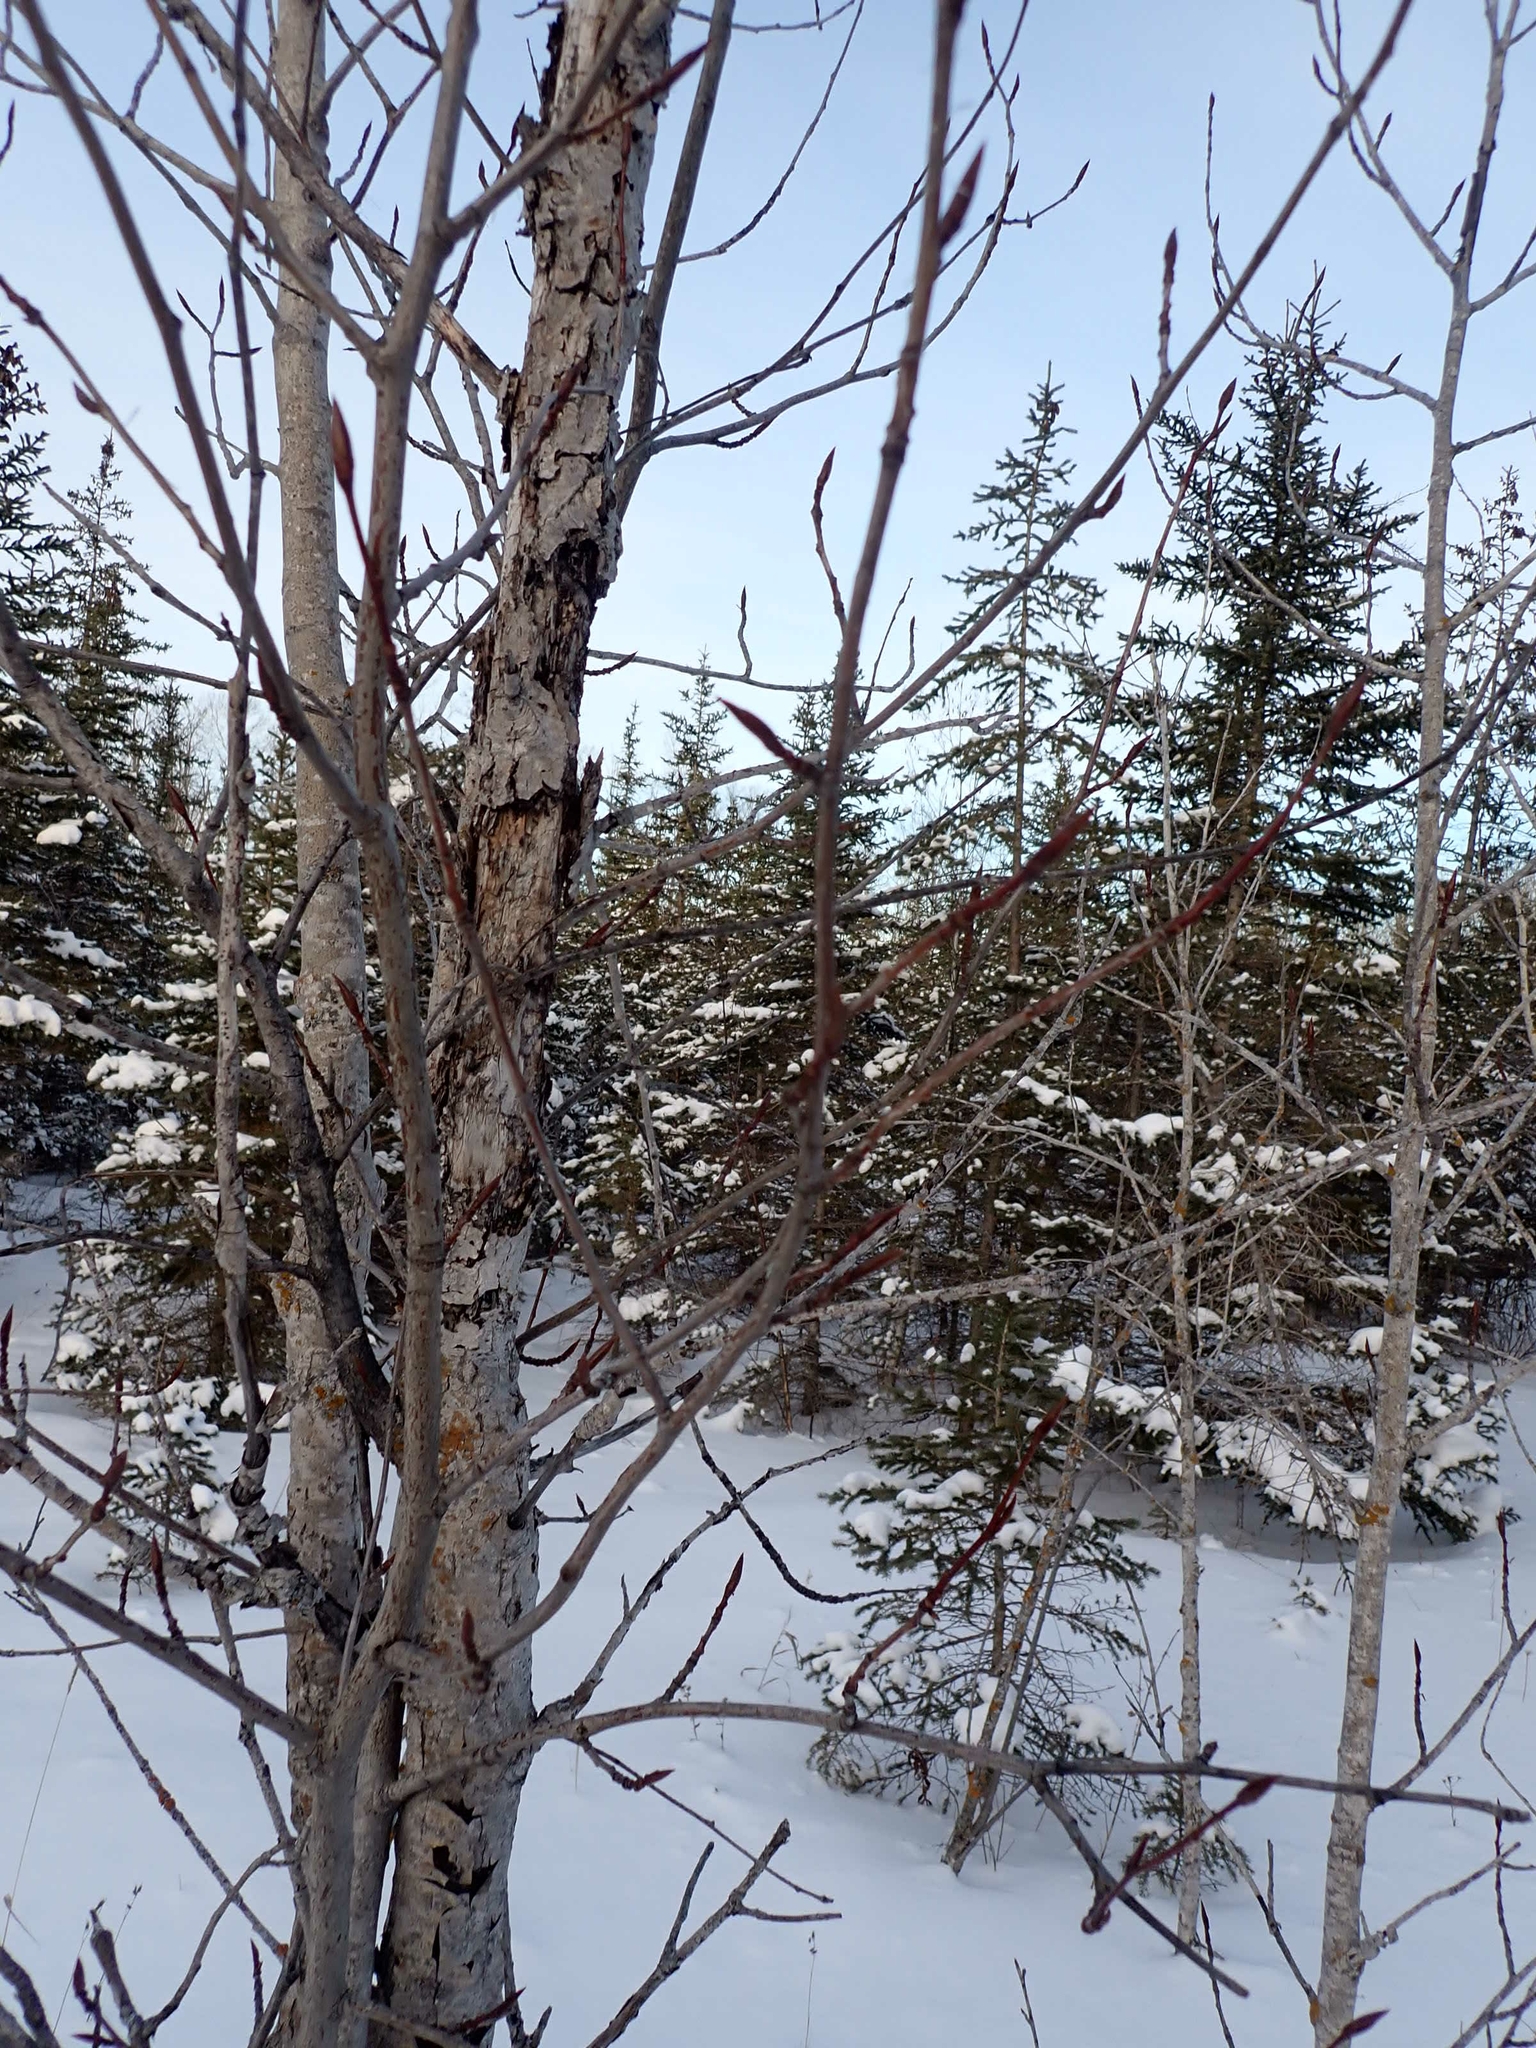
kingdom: Plantae
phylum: Tracheophyta
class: Magnoliopsida
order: Malpighiales
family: Salicaceae
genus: Populus
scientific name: Populus balsamifera
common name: Balsam poplar
